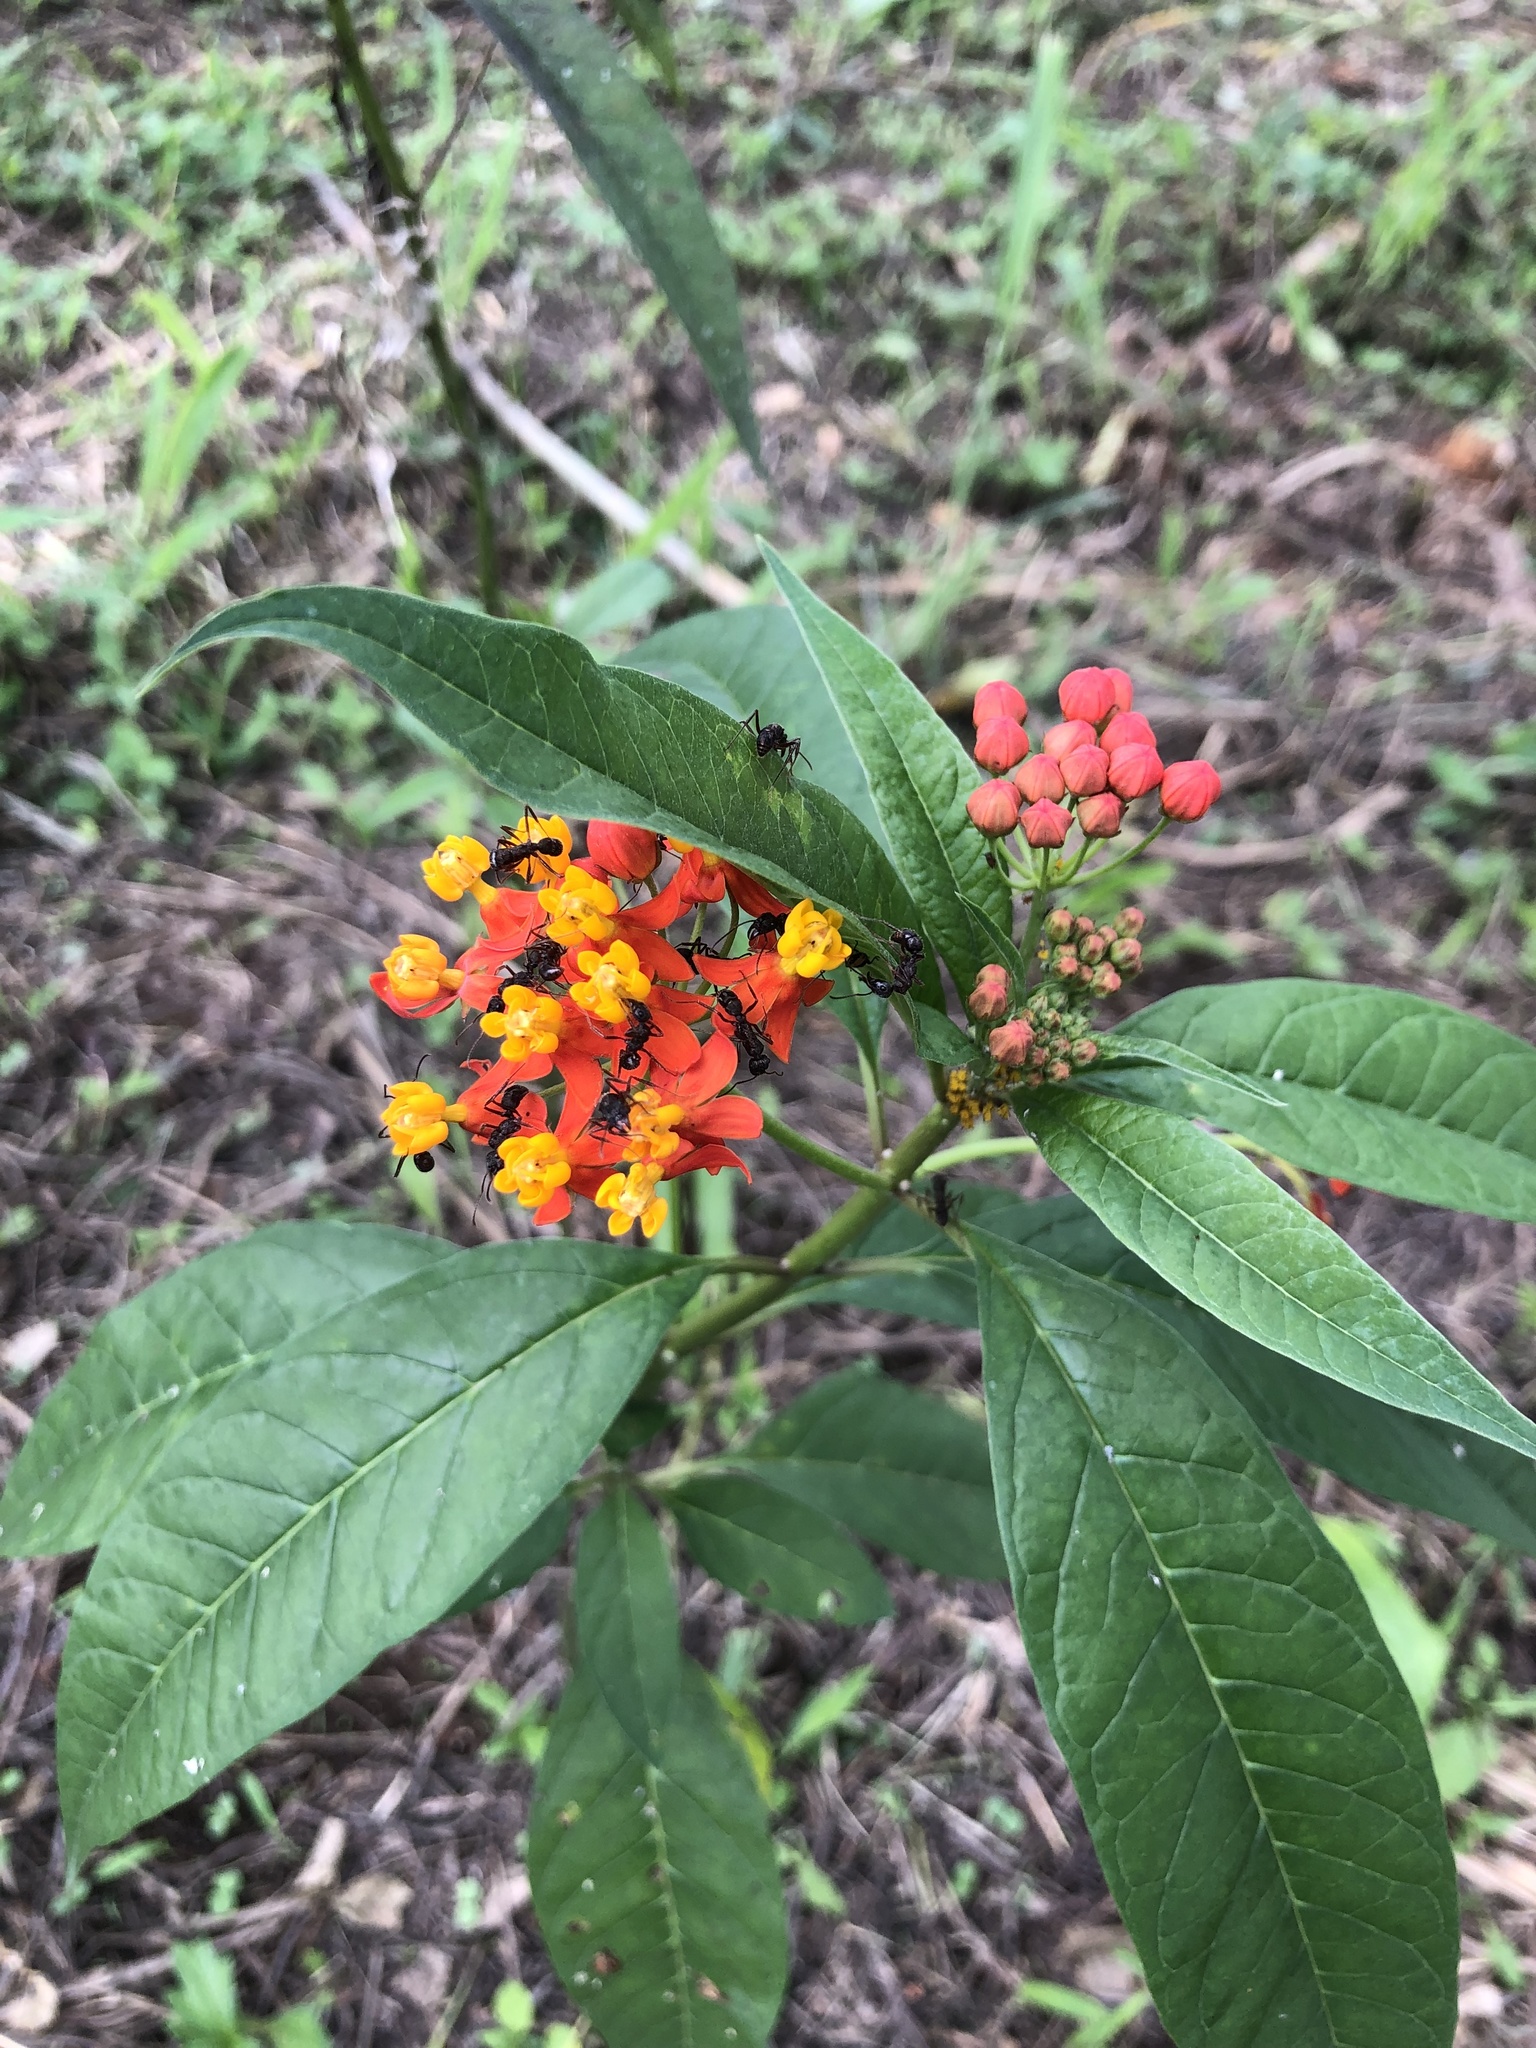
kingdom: Plantae
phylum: Tracheophyta
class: Magnoliopsida
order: Gentianales
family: Apocynaceae
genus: Asclepias
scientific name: Asclepias curassavica
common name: Bloodflower
